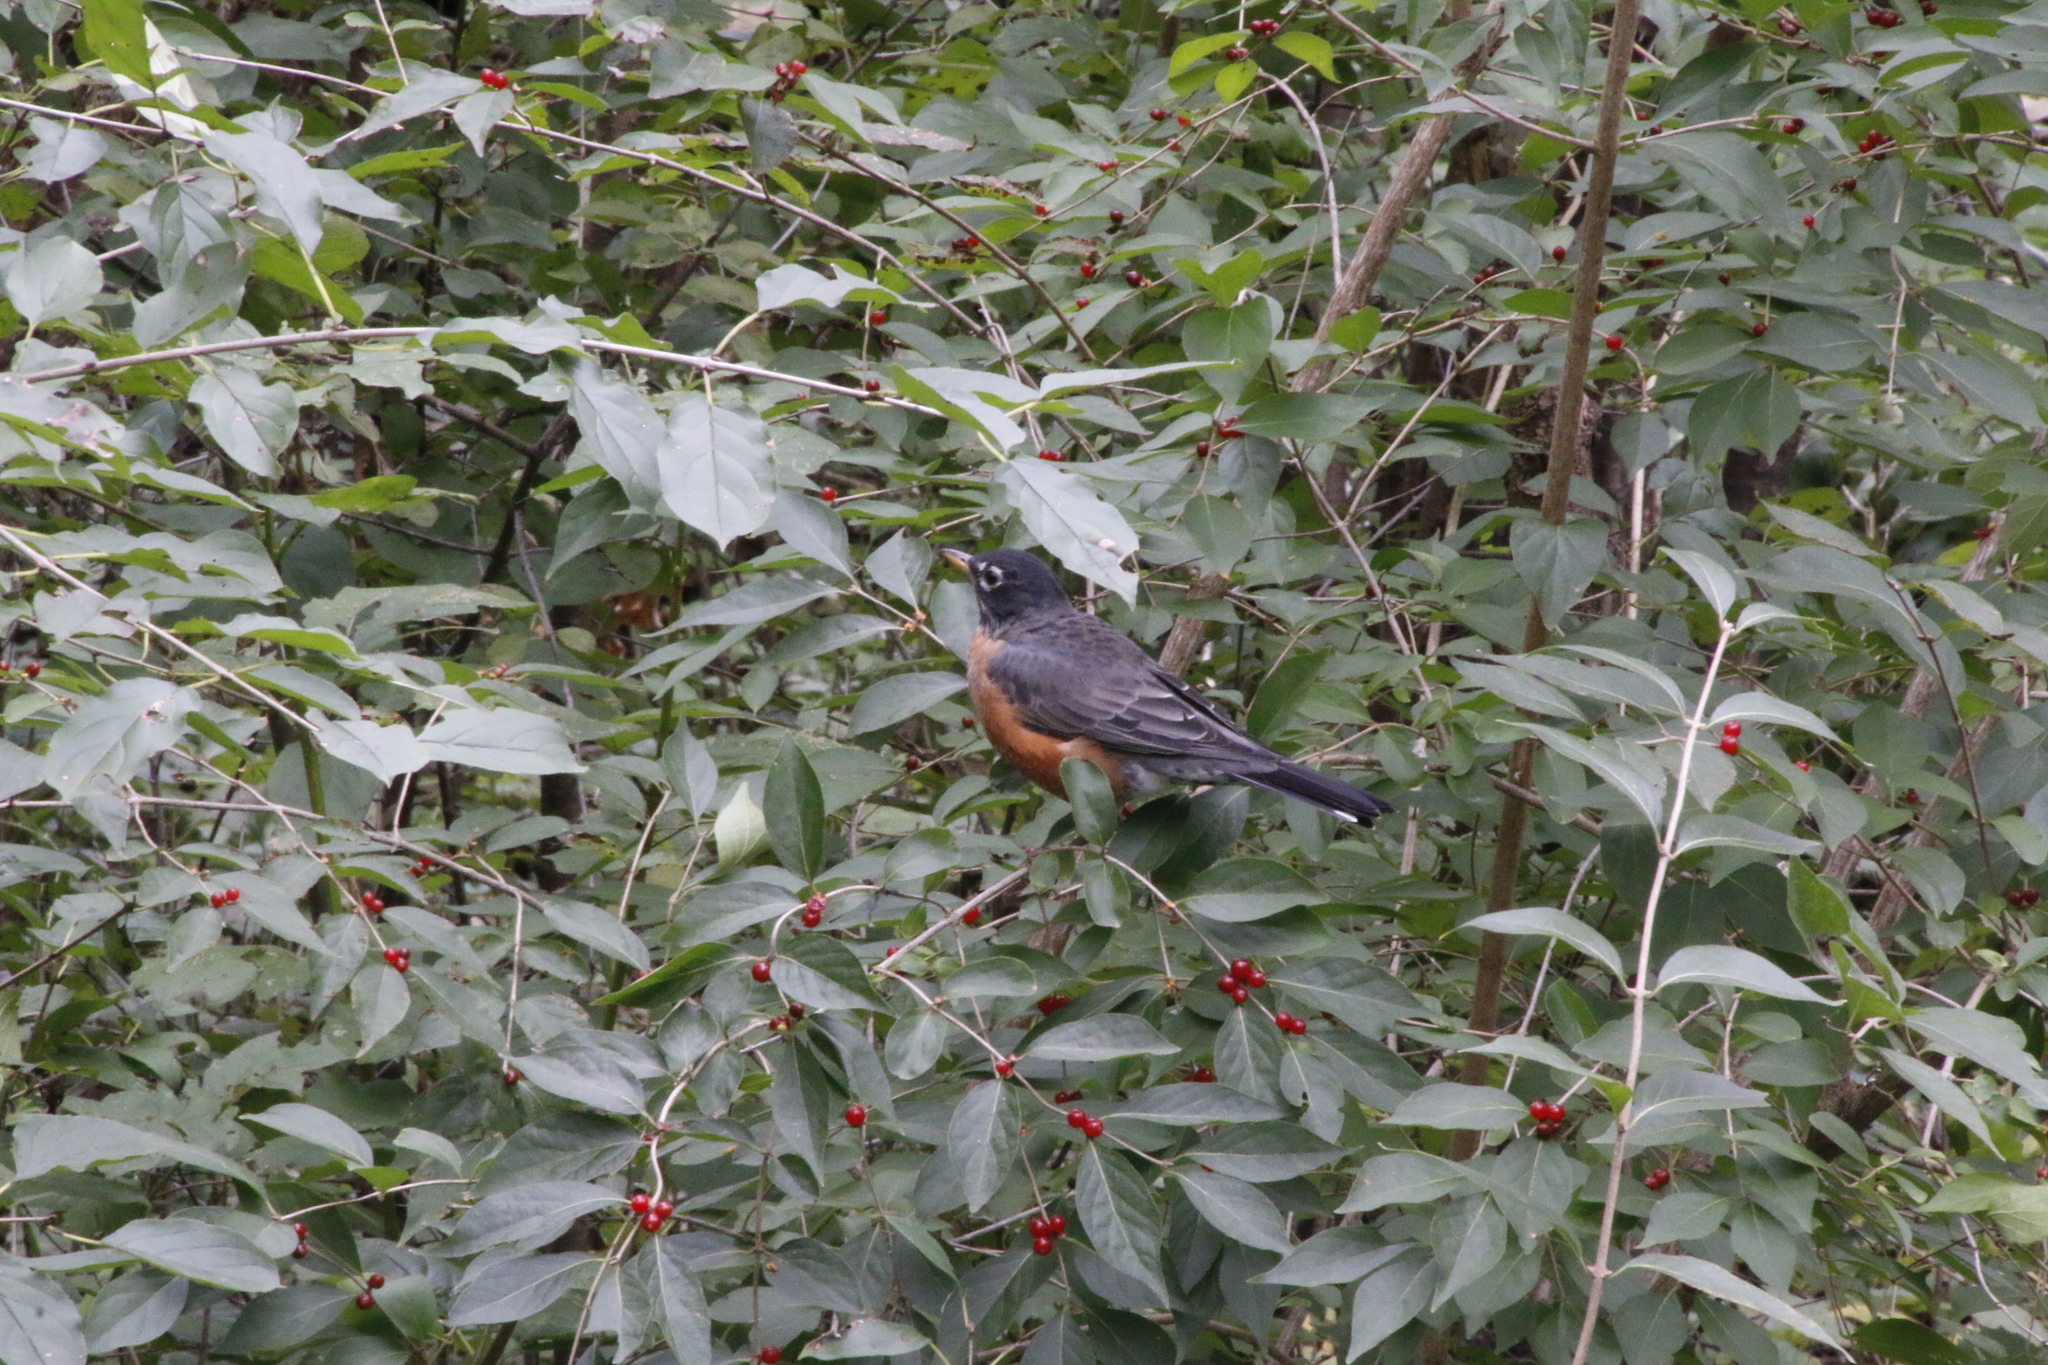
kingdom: Animalia
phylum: Chordata
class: Aves
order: Passeriformes
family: Turdidae
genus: Turdus
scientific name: Turdus migratorius
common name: American robin
